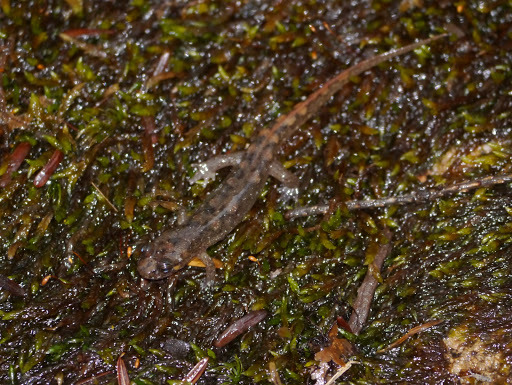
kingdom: Animalia
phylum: Chordata
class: Amphibia
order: Caudata
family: Plethodontidae
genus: Desmognathus
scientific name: Desmognathus monticola
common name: Seal salamander
